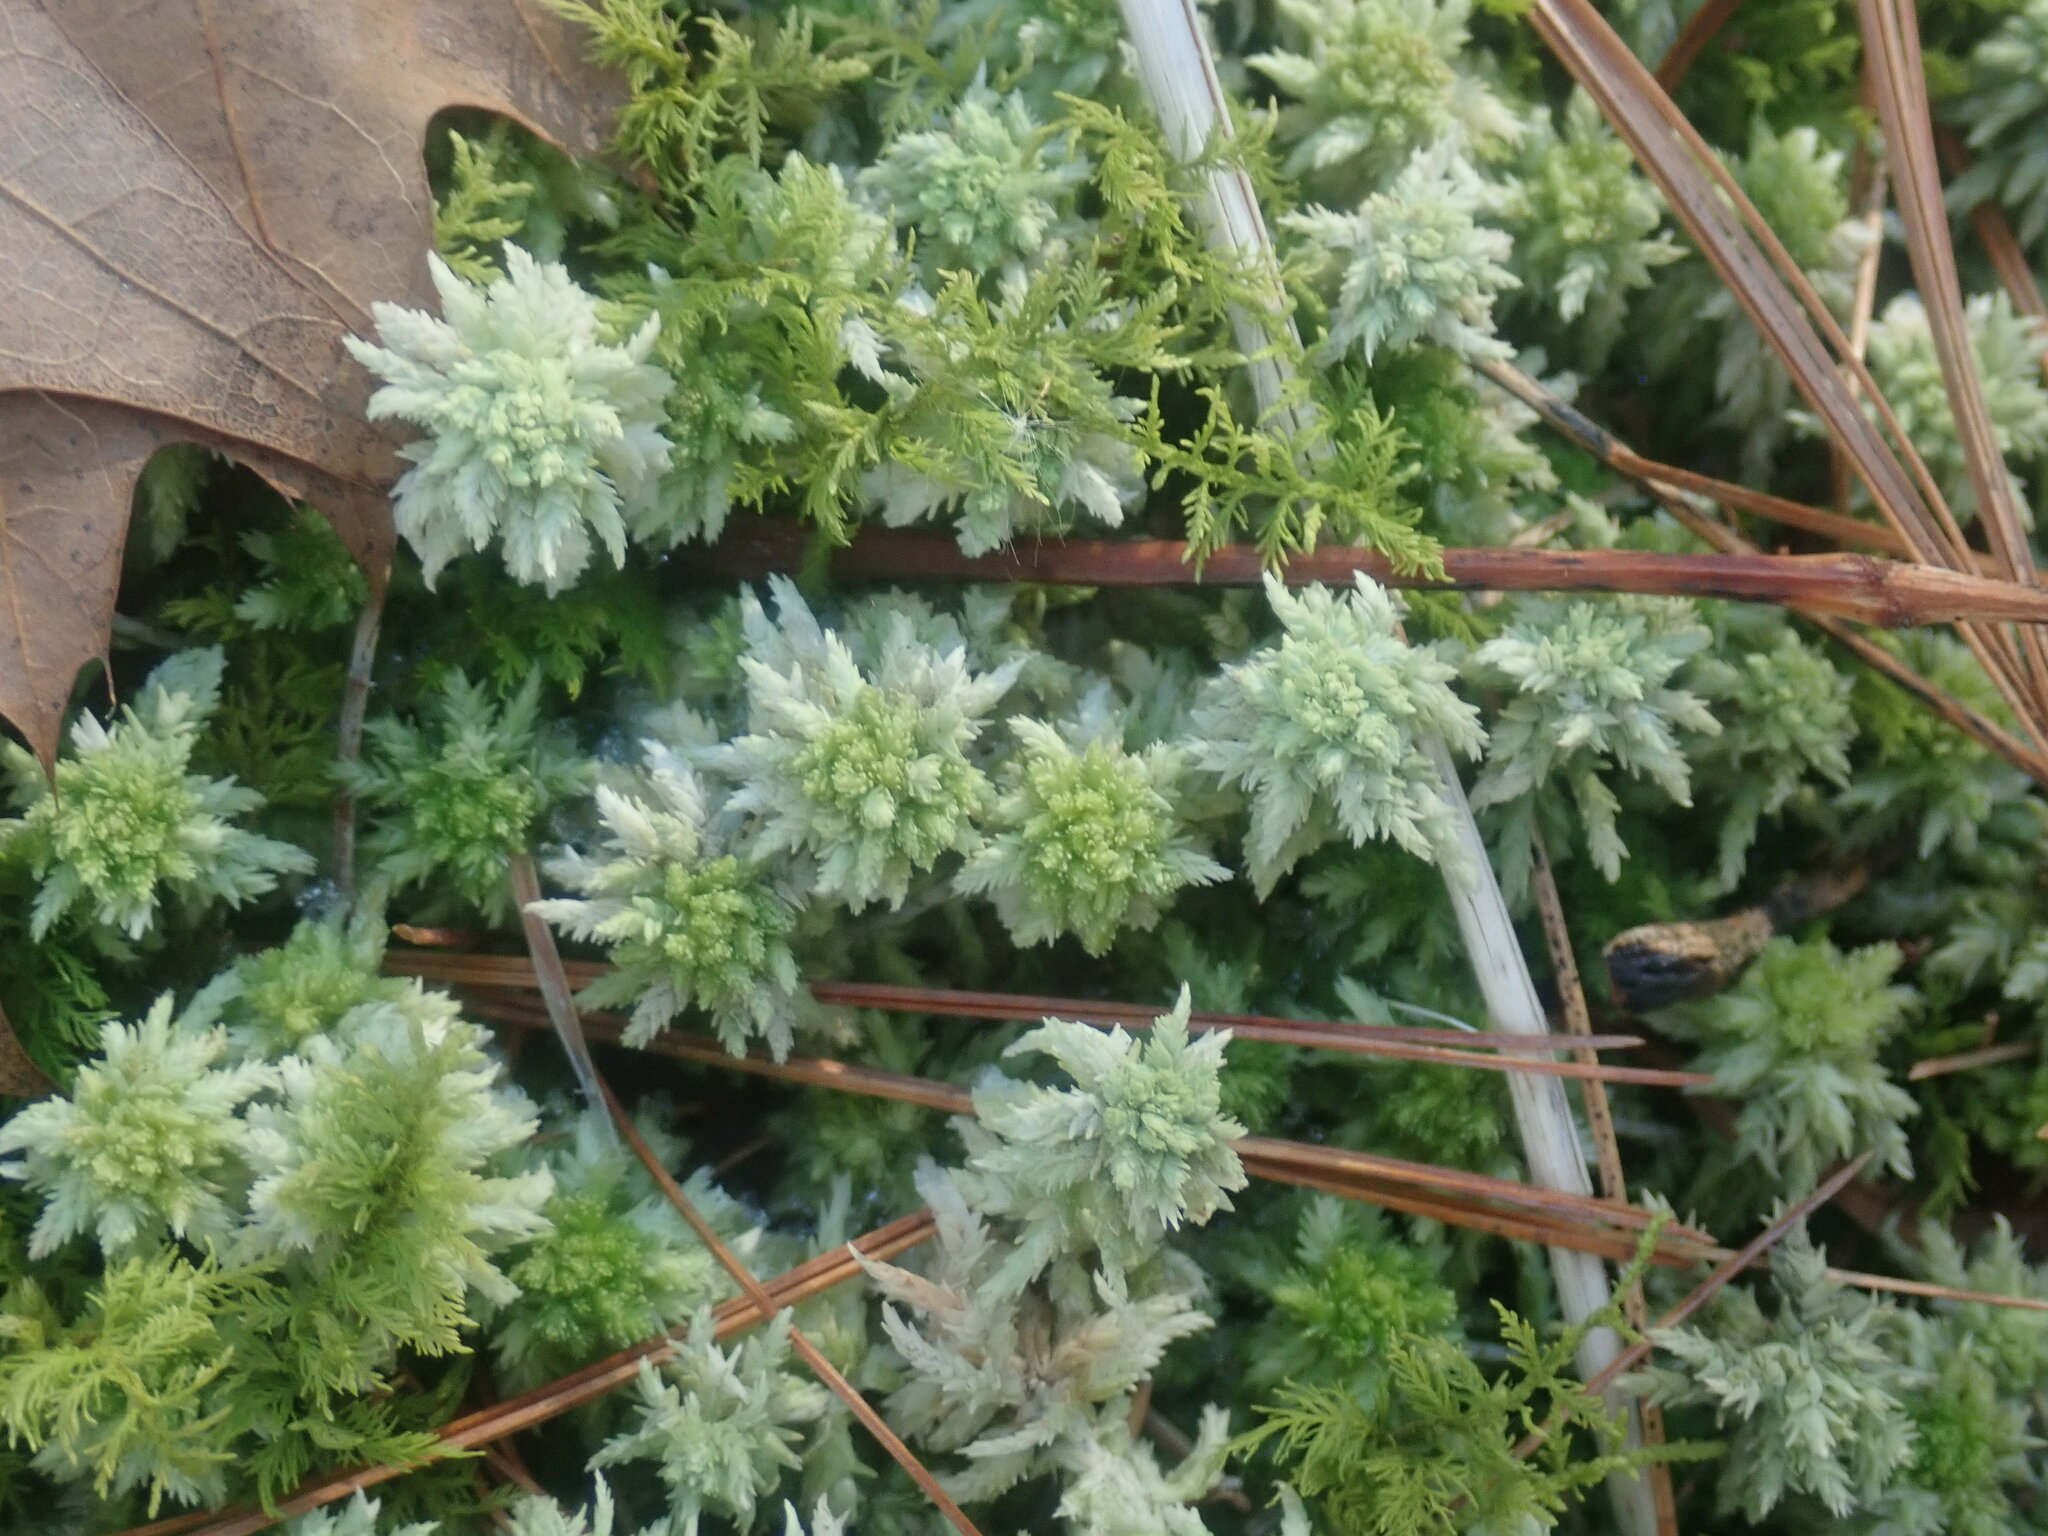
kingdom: Plantae
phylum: Bryophyta
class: Sphagnopsida
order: Sphagnales
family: Sphagnaceae
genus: Sphagnum
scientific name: Sphagnum
